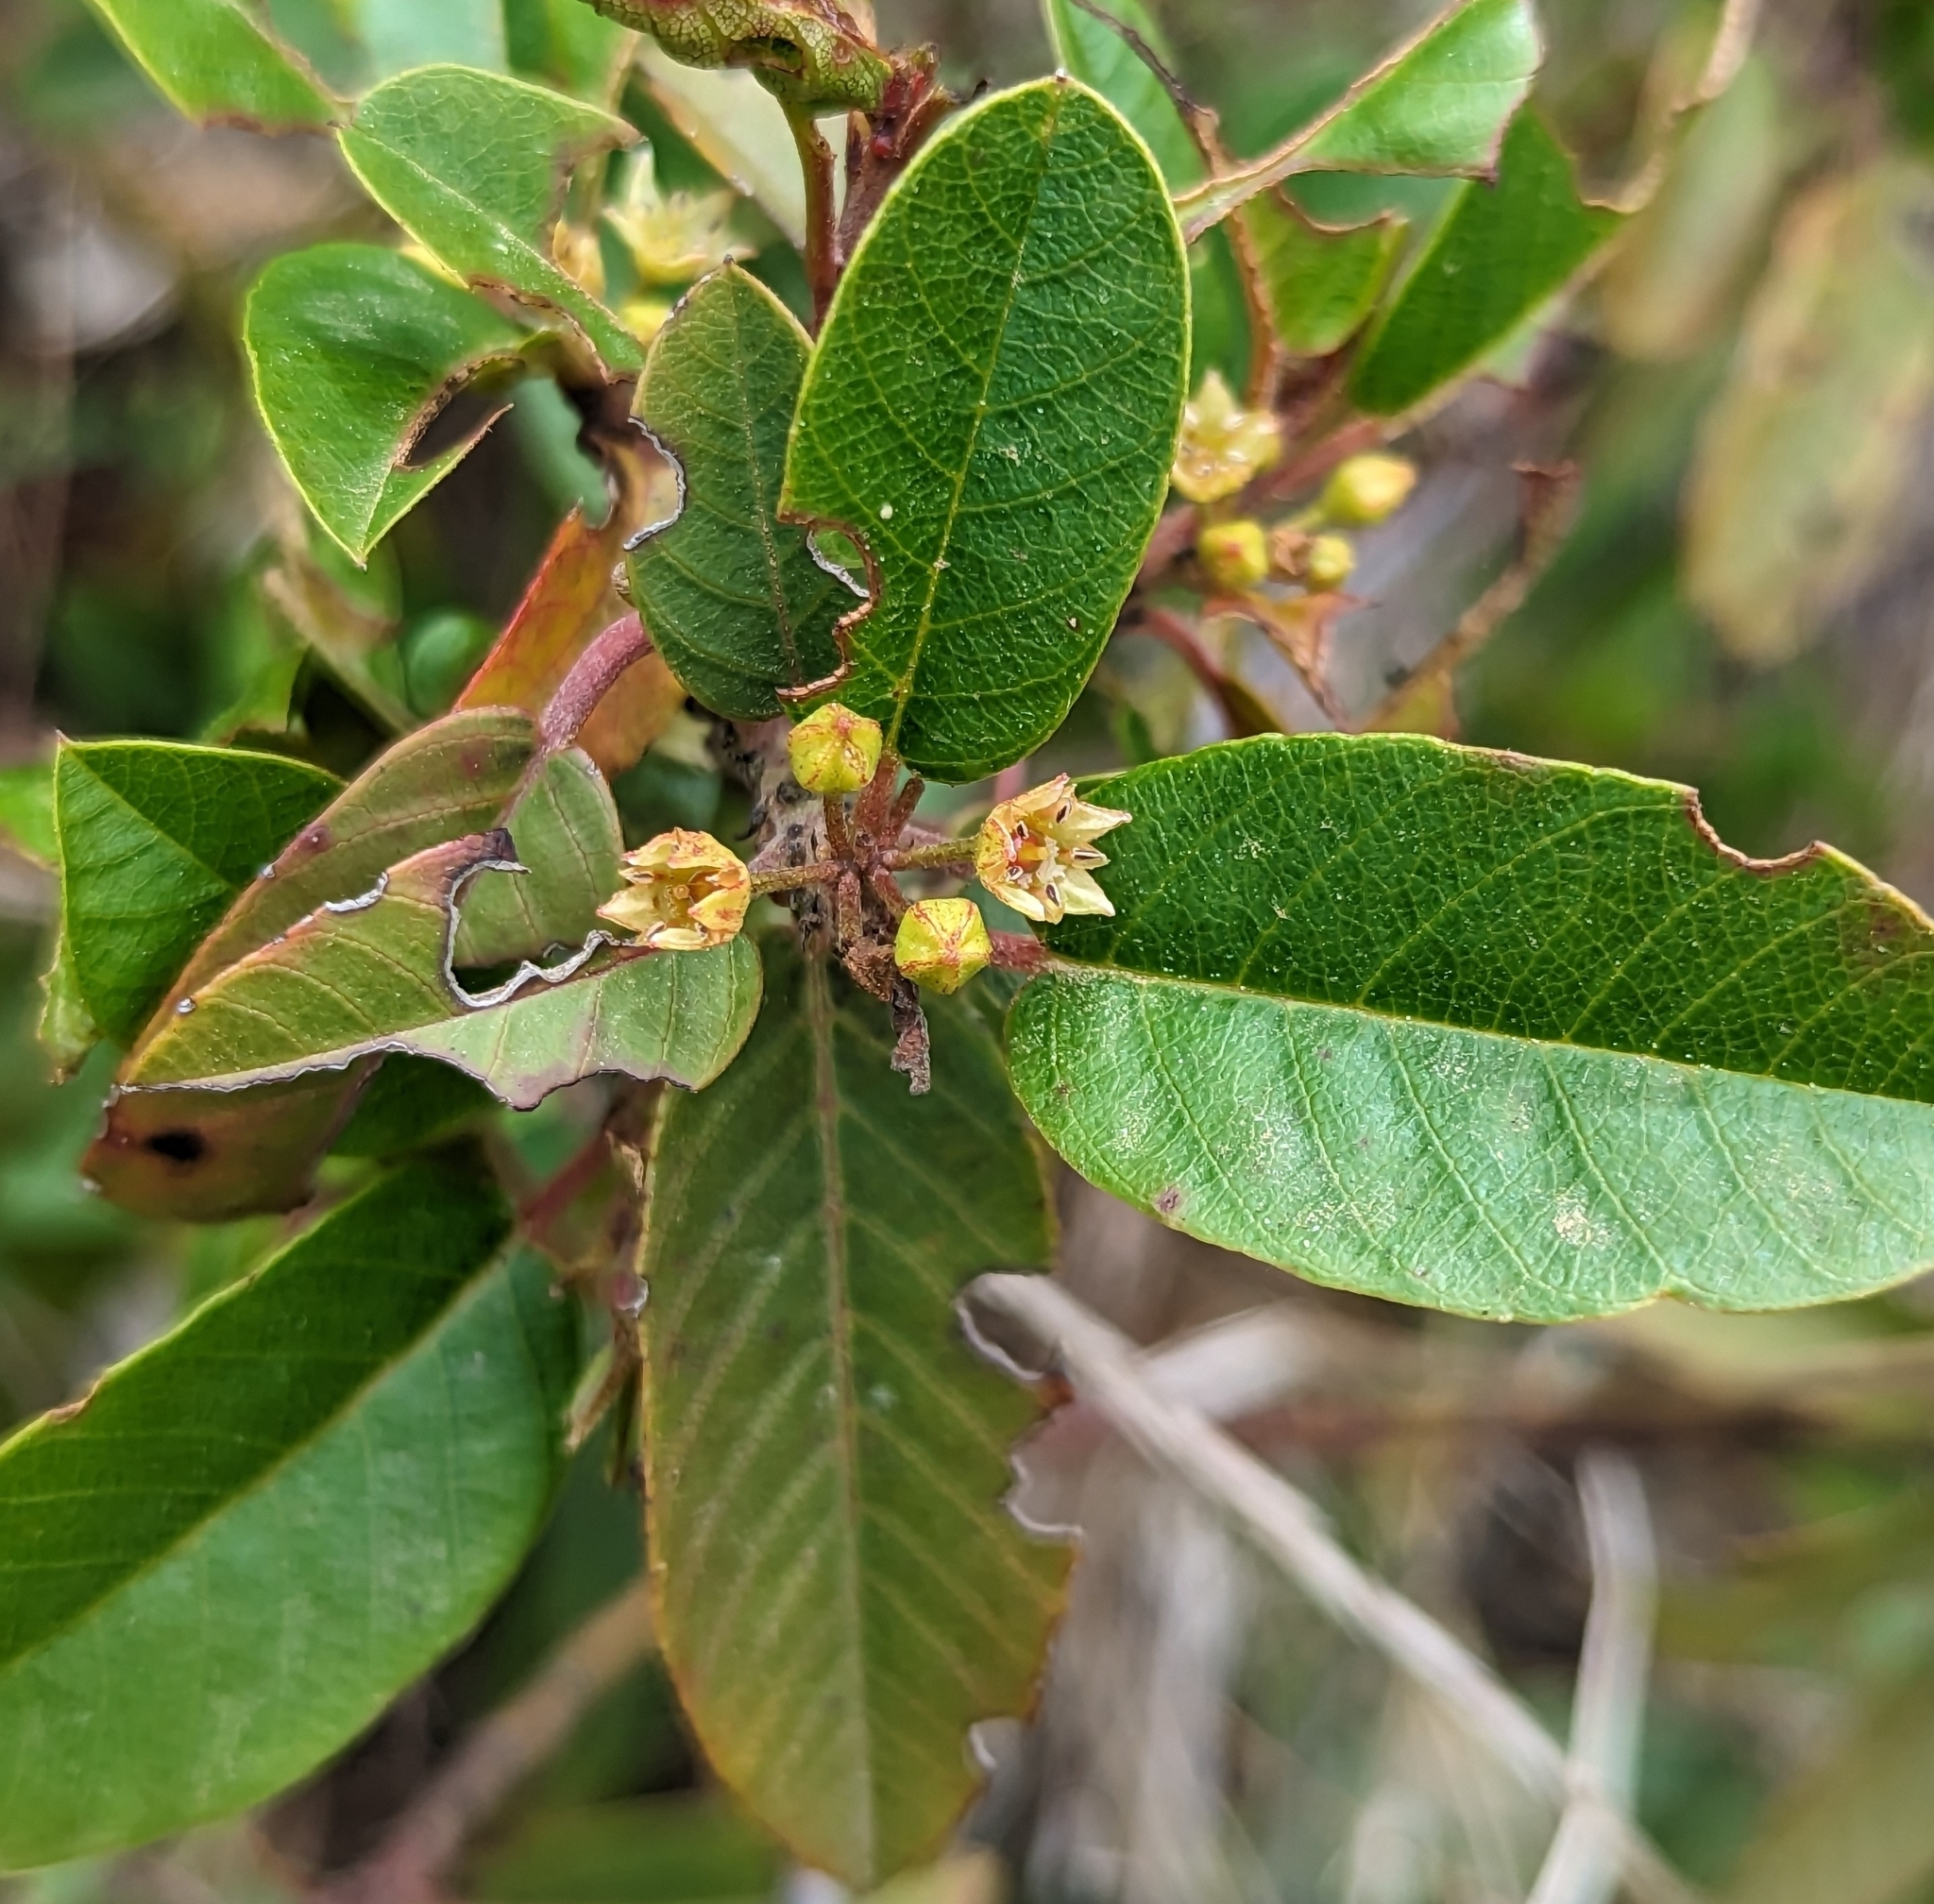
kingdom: Plantae
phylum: Tracheophyta
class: Magnoliopsida
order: Rosales
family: Rhamnaceae
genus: Frangula
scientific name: Frangula californica
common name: California buckthorn
